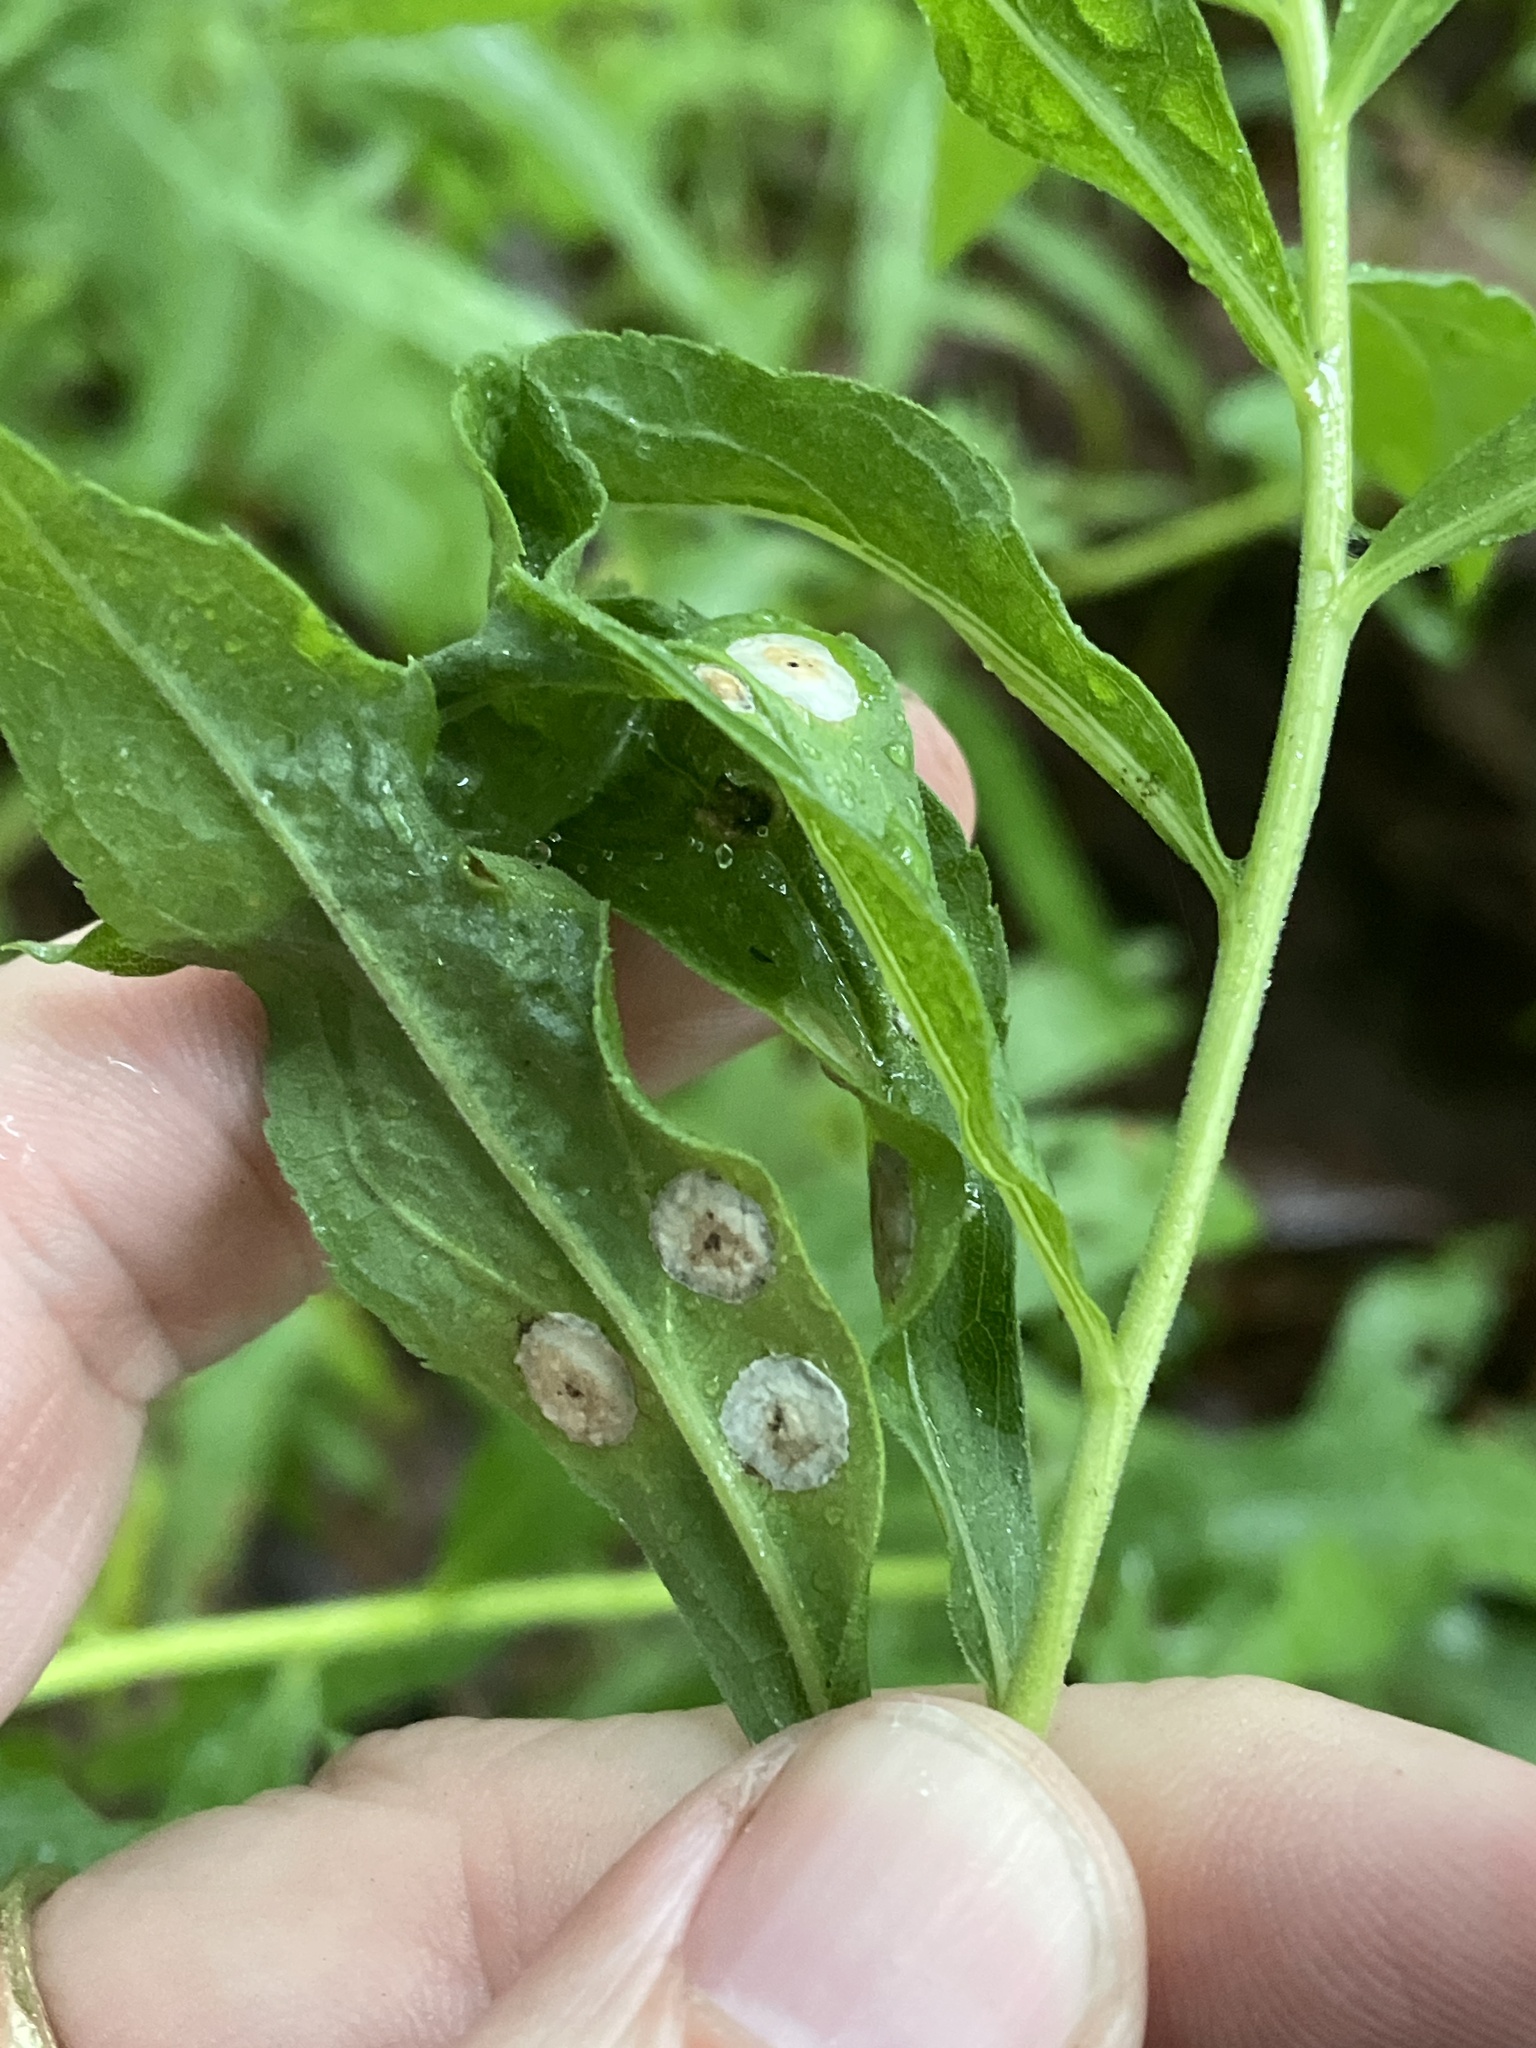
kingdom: Animalia
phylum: Arthropoda
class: Insecta
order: Diptera
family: Cecidomyiidae
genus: Asteromyia
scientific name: Asteromyia carbonifera
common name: Carbonifera goldenrod gall midge
